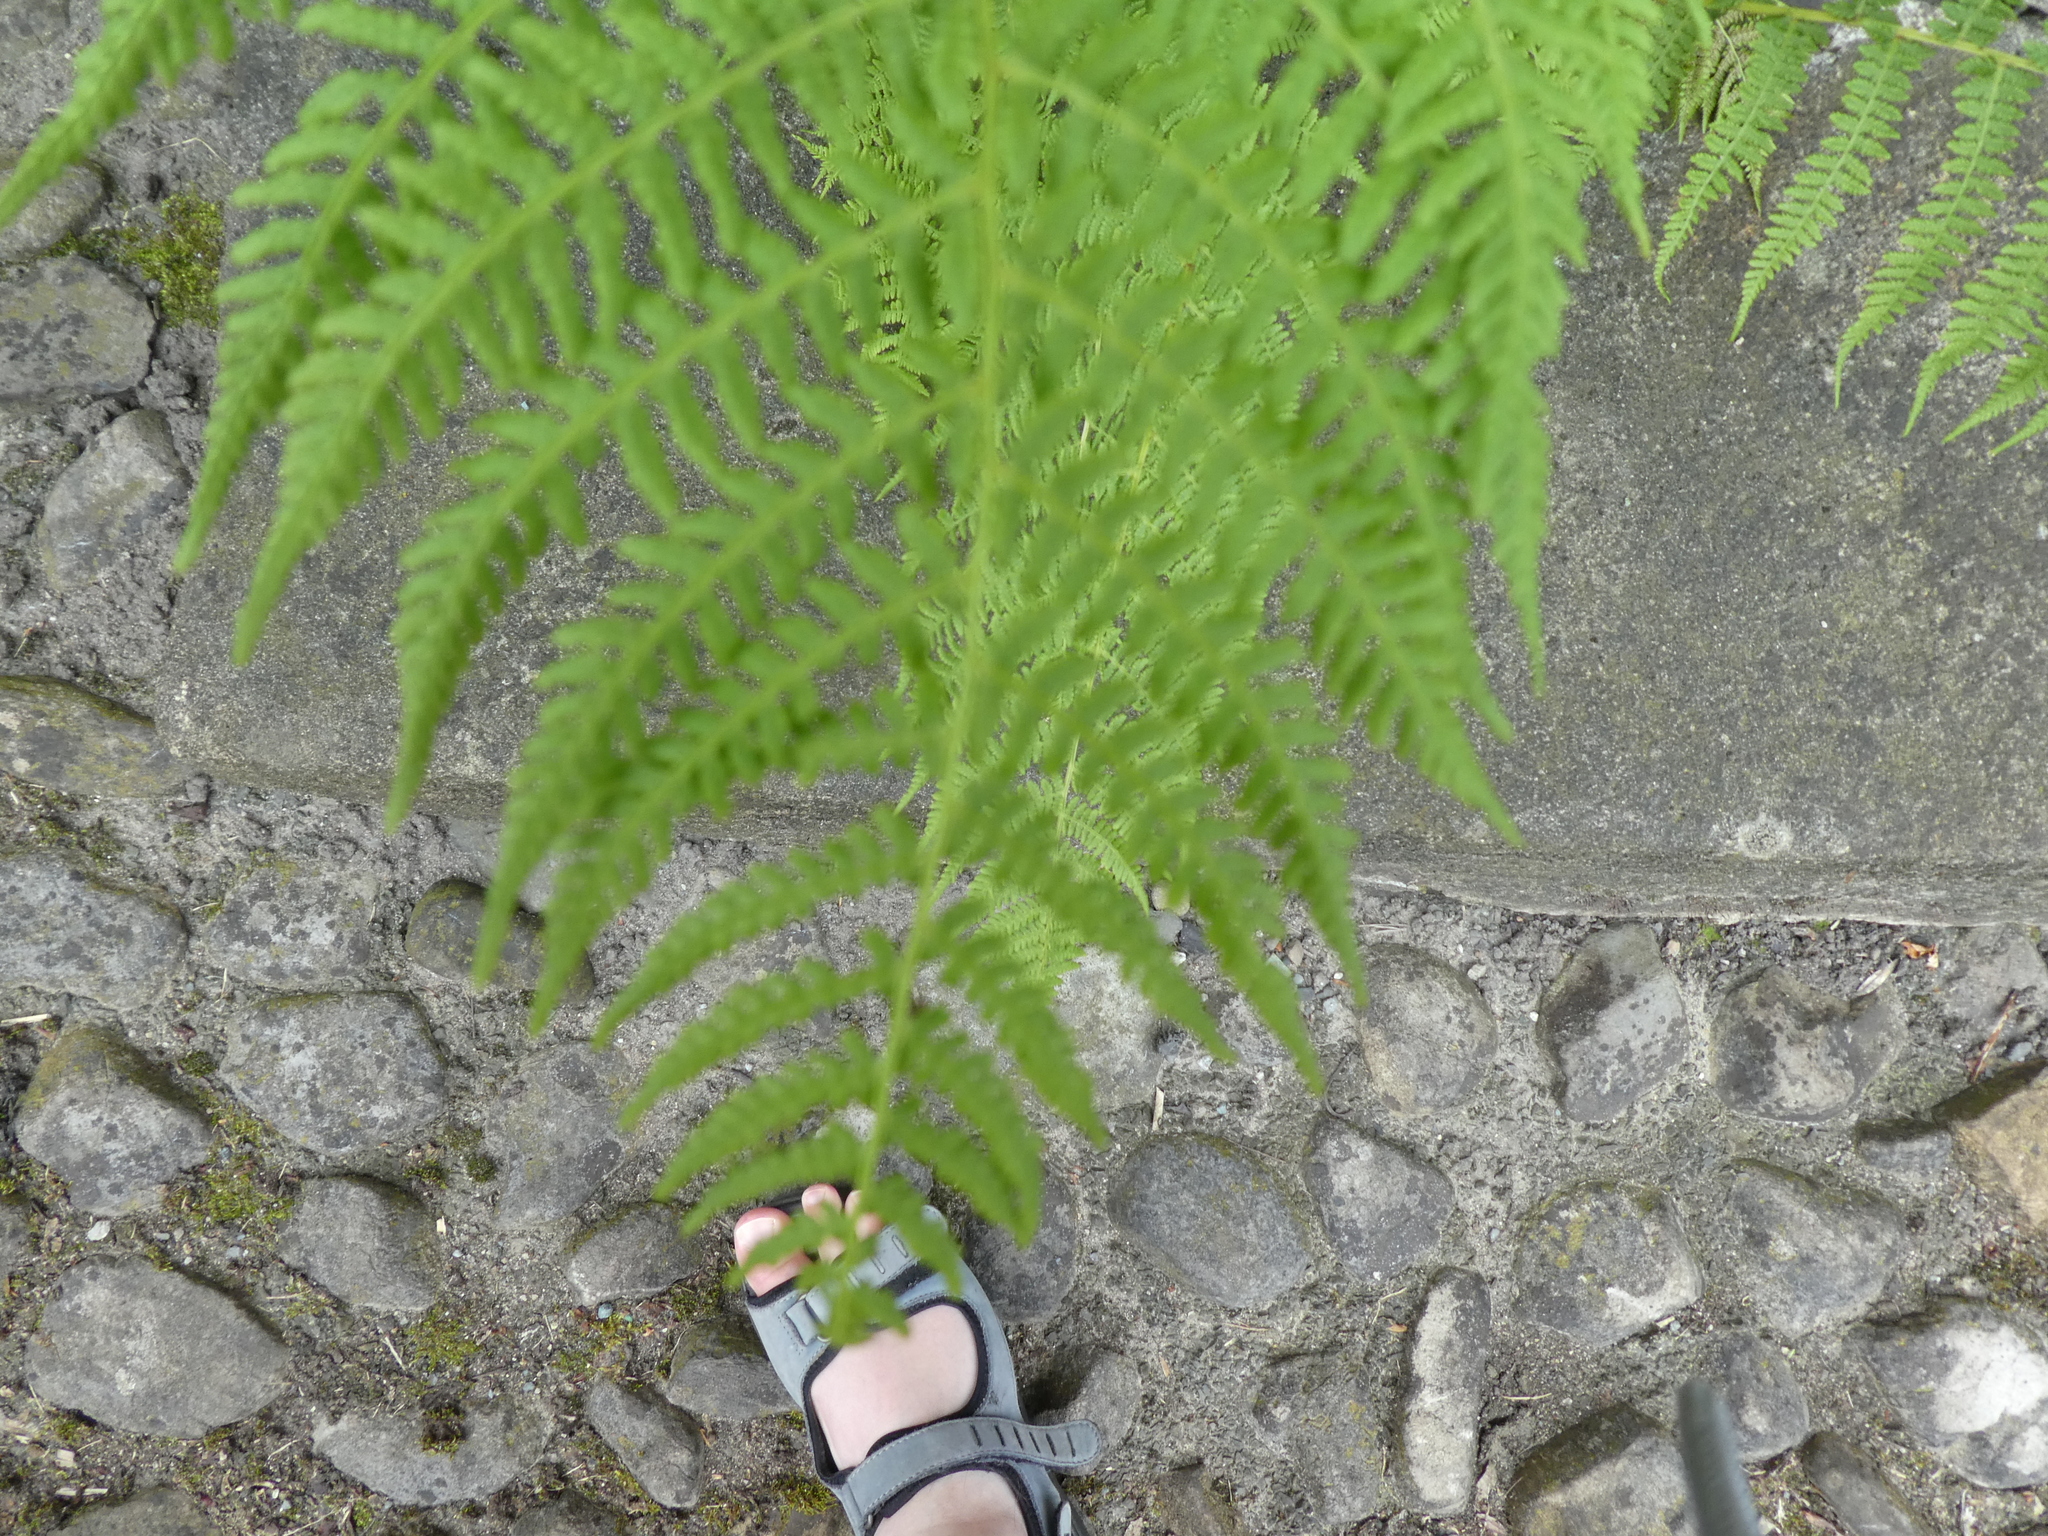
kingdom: Plantae
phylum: Tracheophyta
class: Polypodiopsida
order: Polypodiales
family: Athyriaceae
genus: Athyrium
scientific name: Athyrium filix-femina
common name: Lady fern
